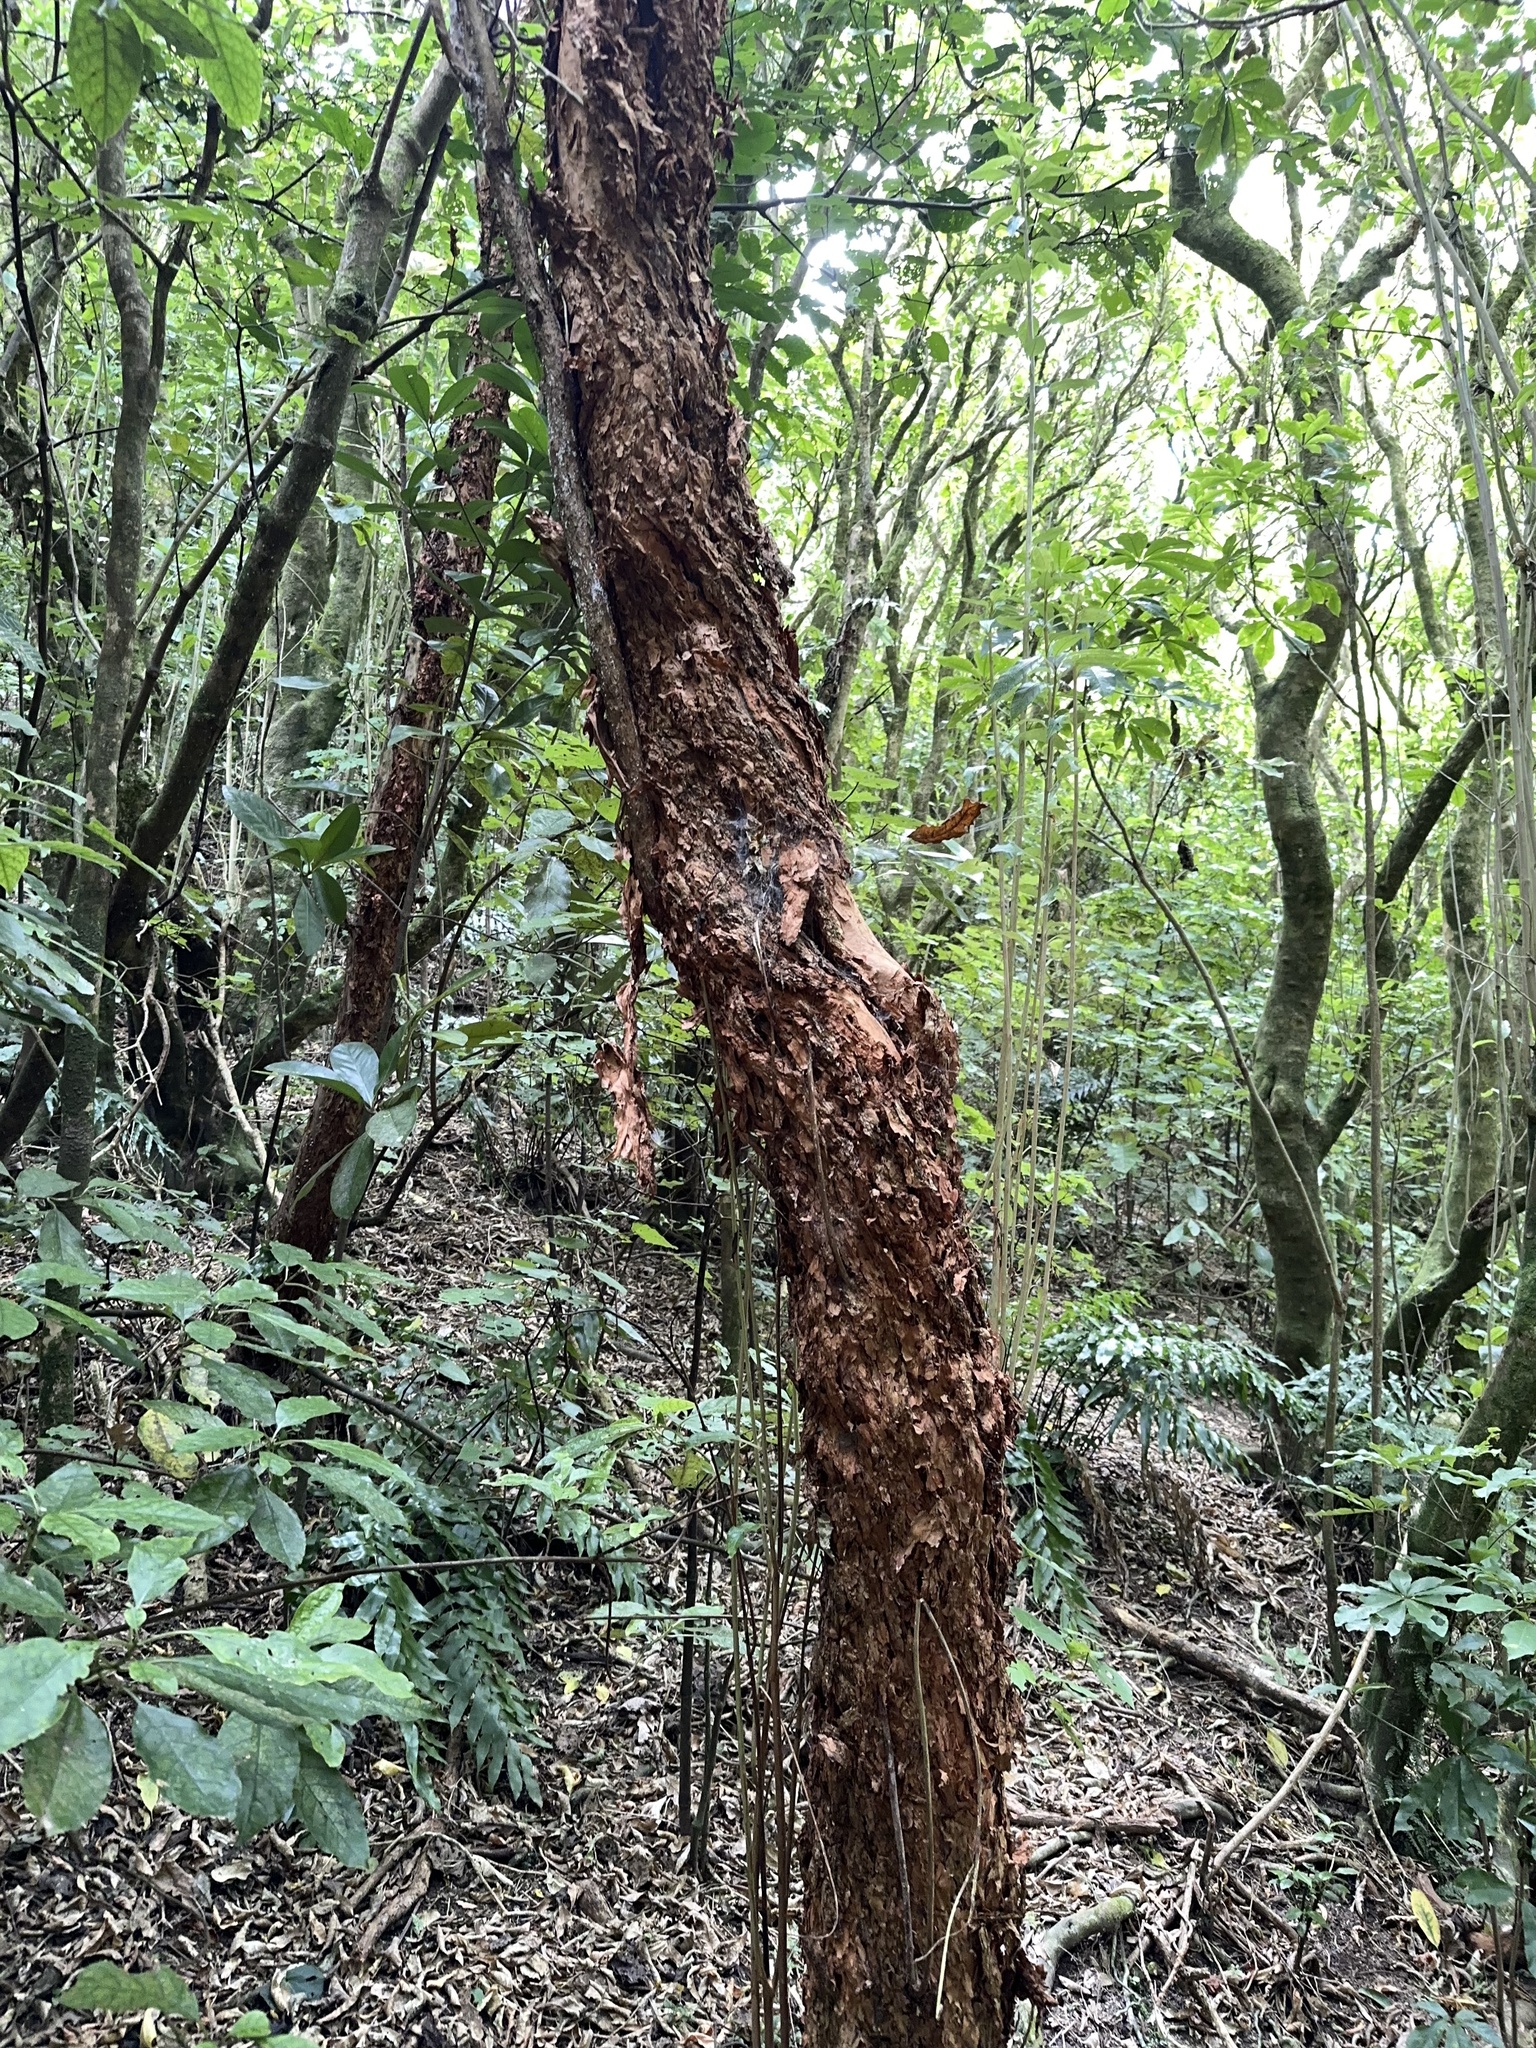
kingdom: Plantae
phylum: Tracheophyta
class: Magnoliopsida
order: Myrtales
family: Onagraceae
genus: Fuchsia
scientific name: Fuchsia excorticata
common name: Tree fuchsia
